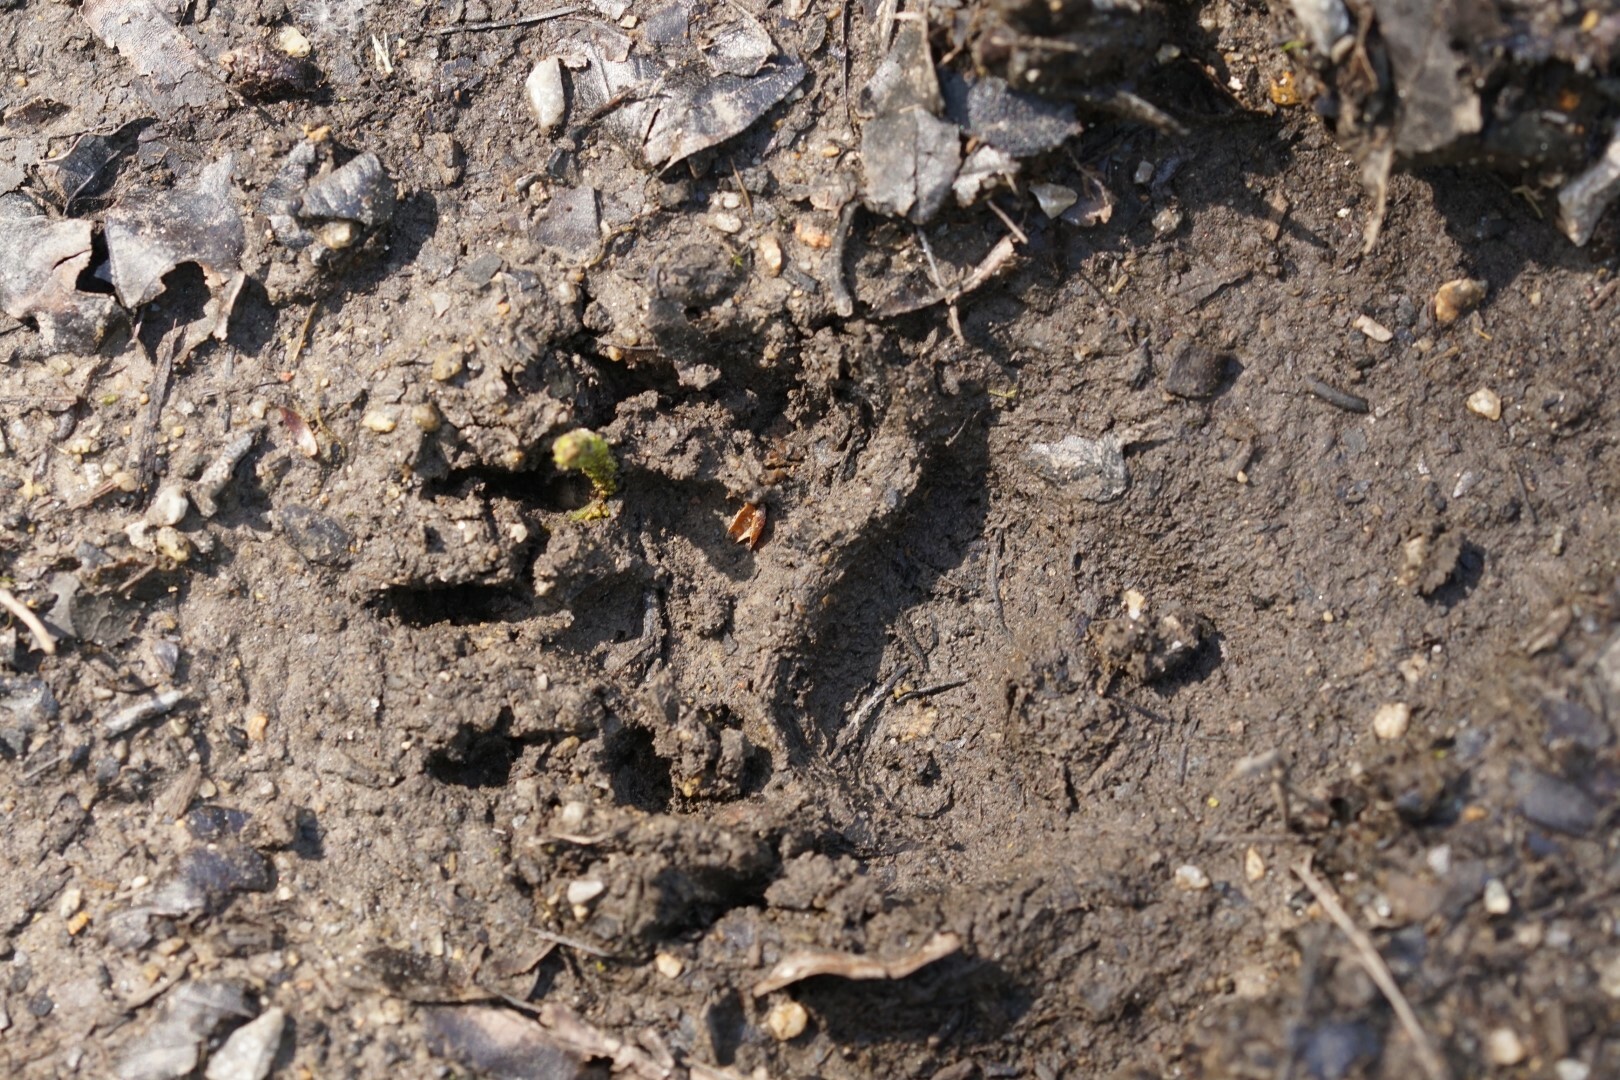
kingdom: Animalia
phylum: Chordata
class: Mammalia
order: Carnivora
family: Mustelidae
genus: Meles
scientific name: Meles meles
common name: Eurasian badger
